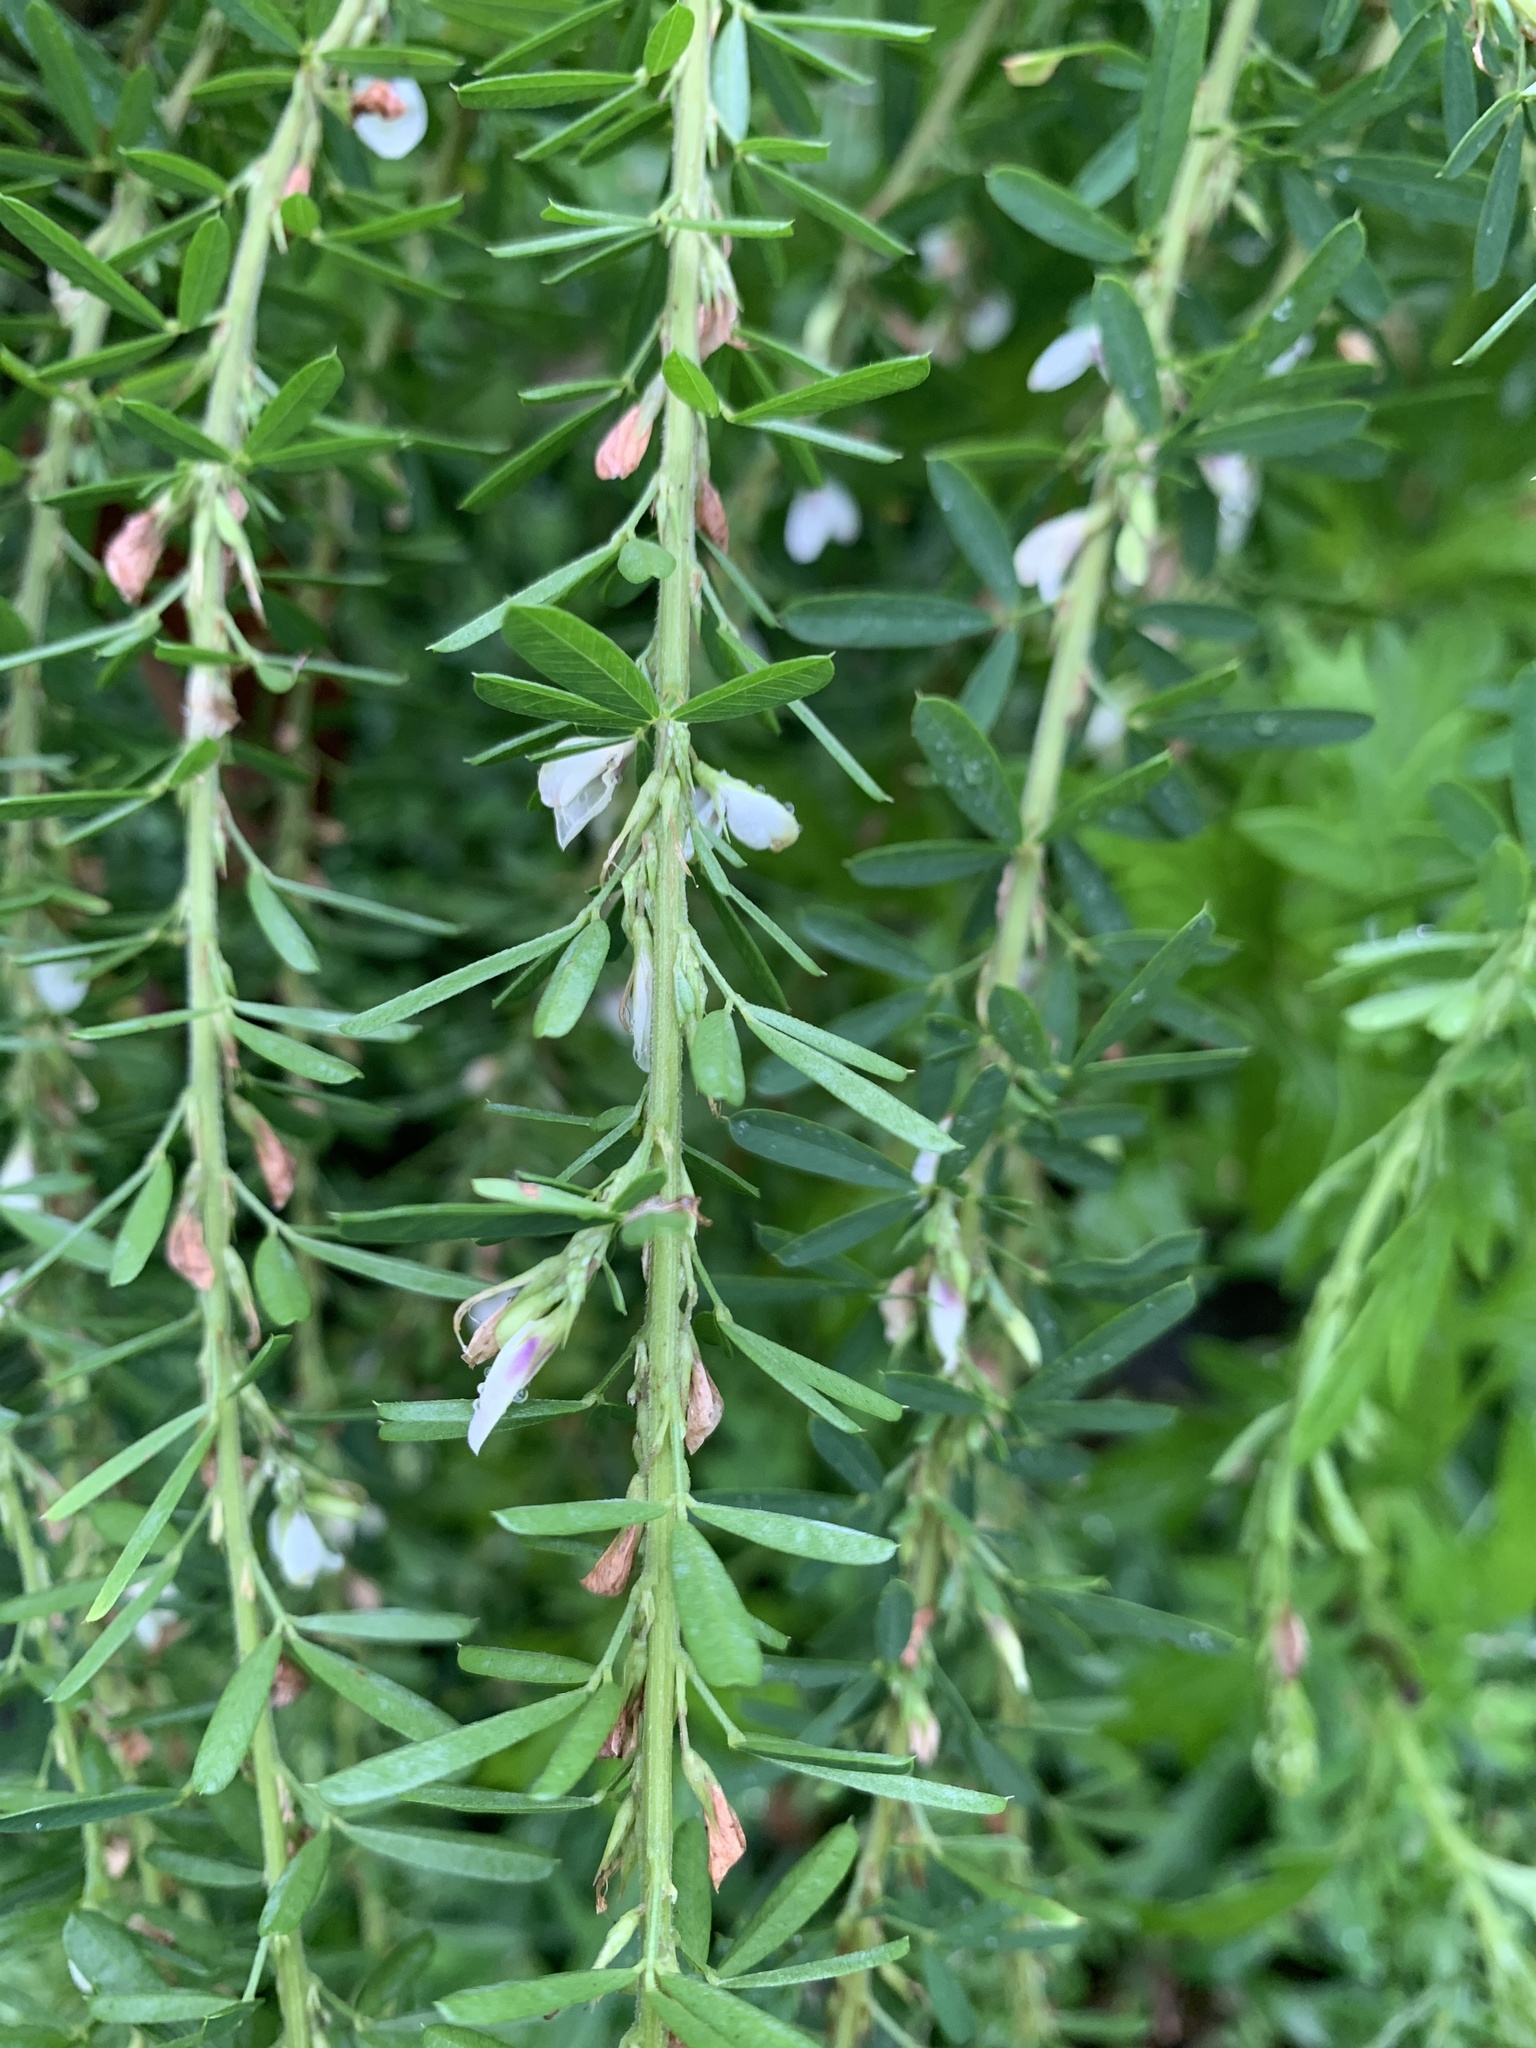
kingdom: Plantae
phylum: Tracheophyta
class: Magnoliopsida
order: Fabales
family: Fabaceae
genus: Lespedeza
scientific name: Lespedeza cuneata
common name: Chinese bush-clover
